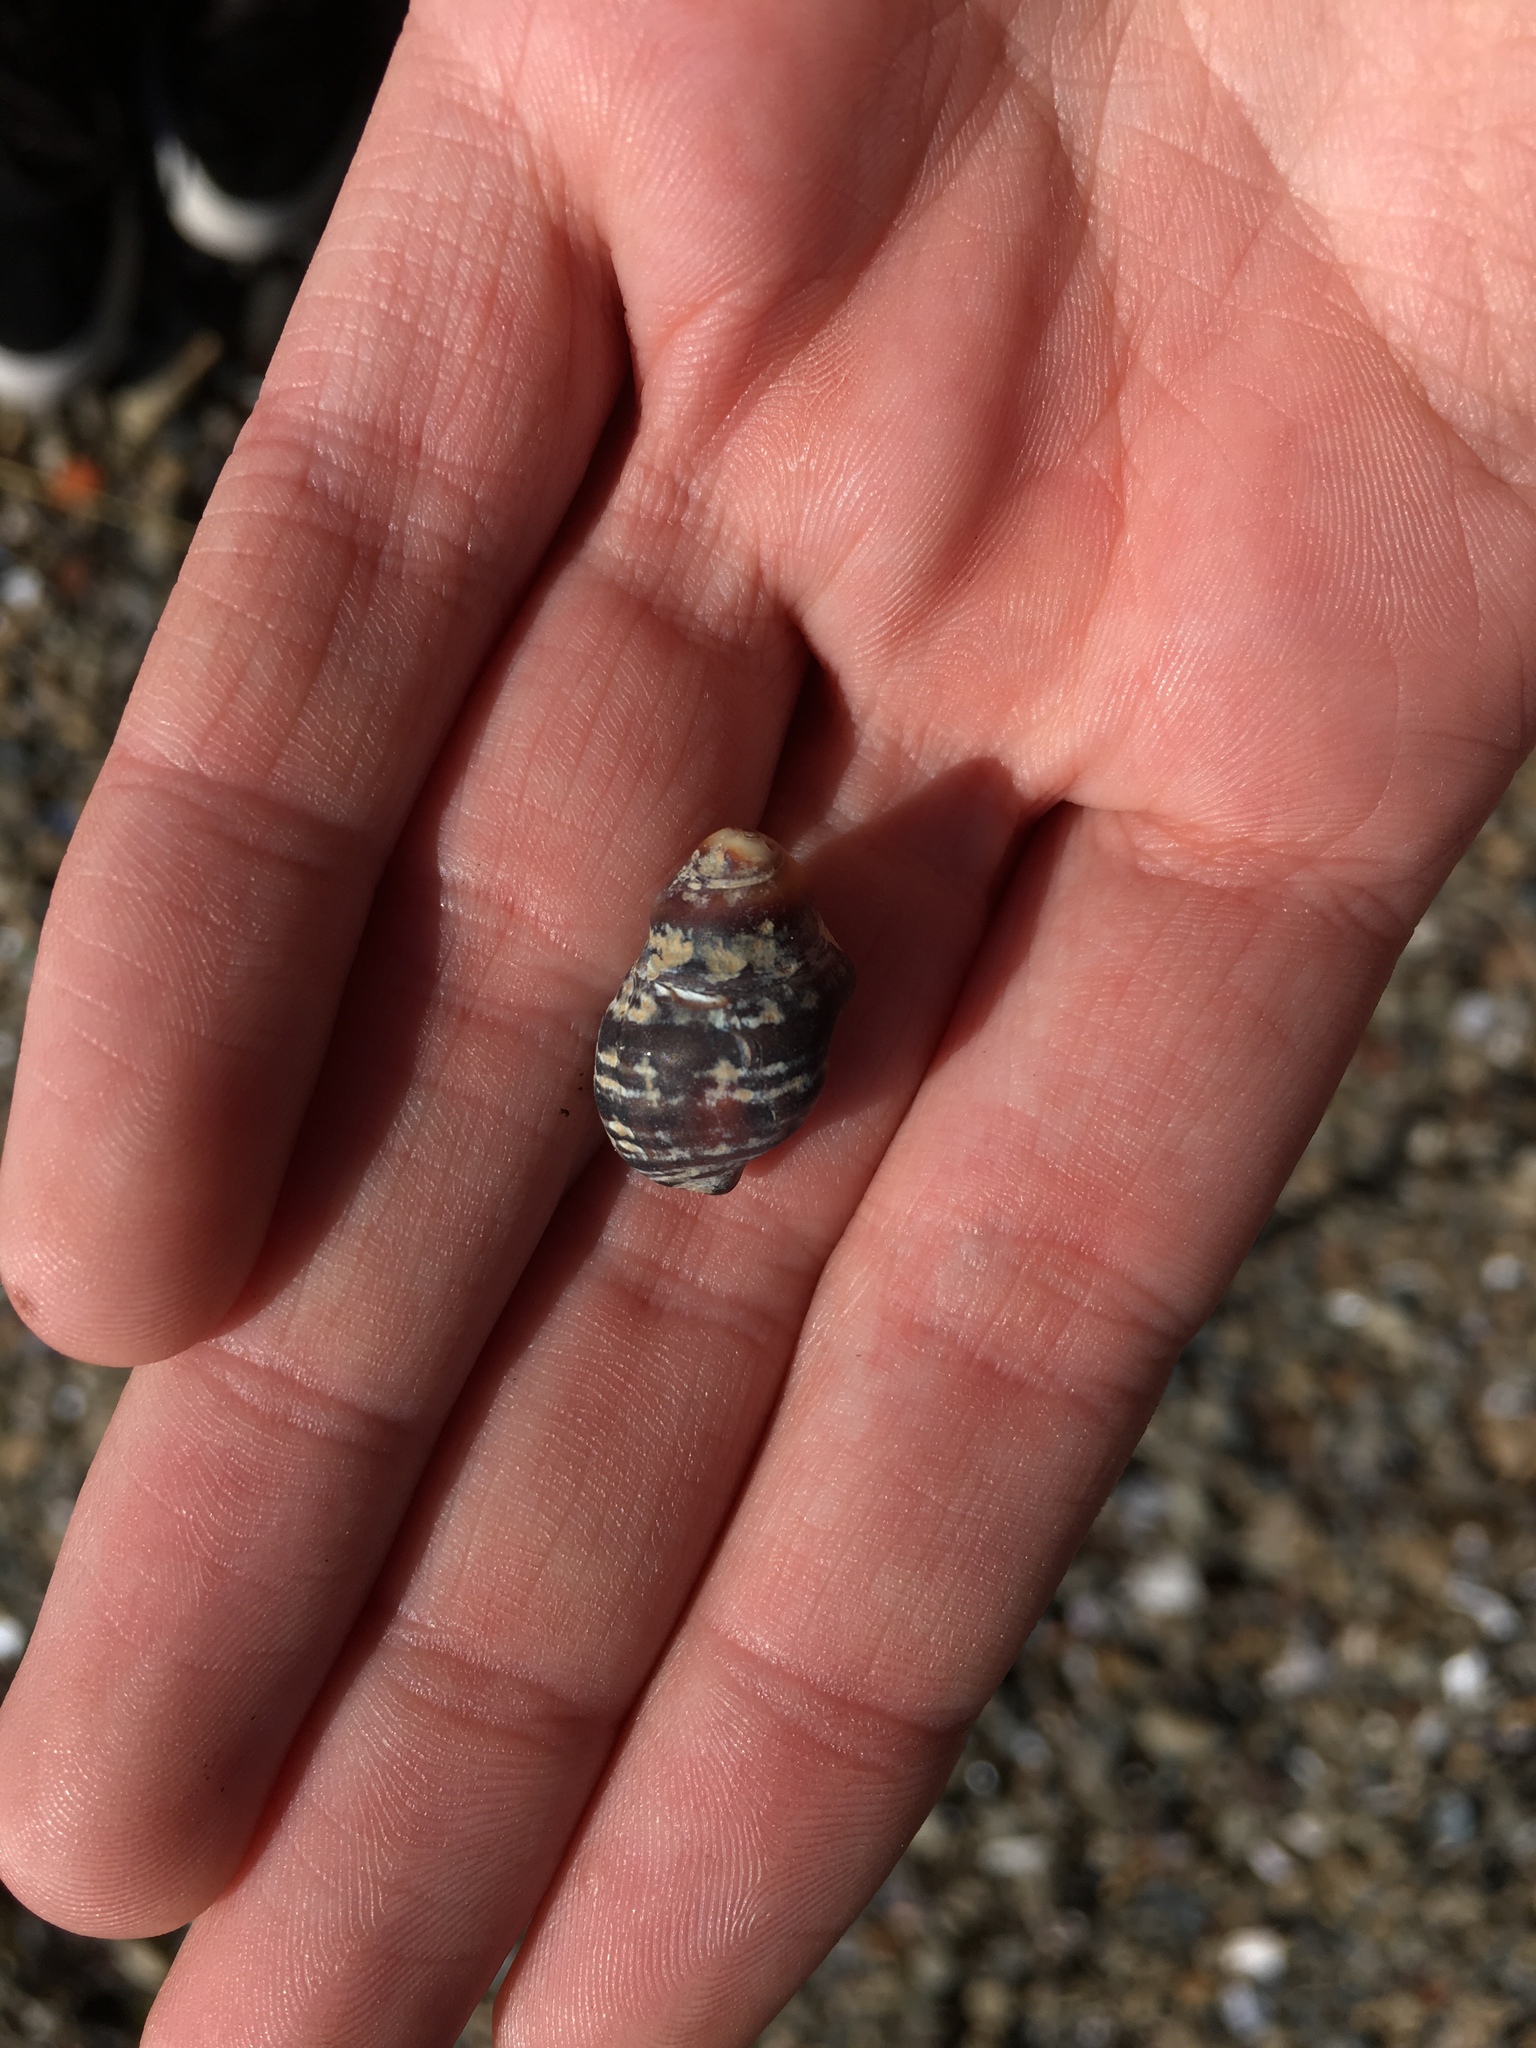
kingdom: Animalia
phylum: Mollusca
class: Gastropoda
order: Neogastropoda
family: Muricidae
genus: Haustrum
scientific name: Haustrum scobina
